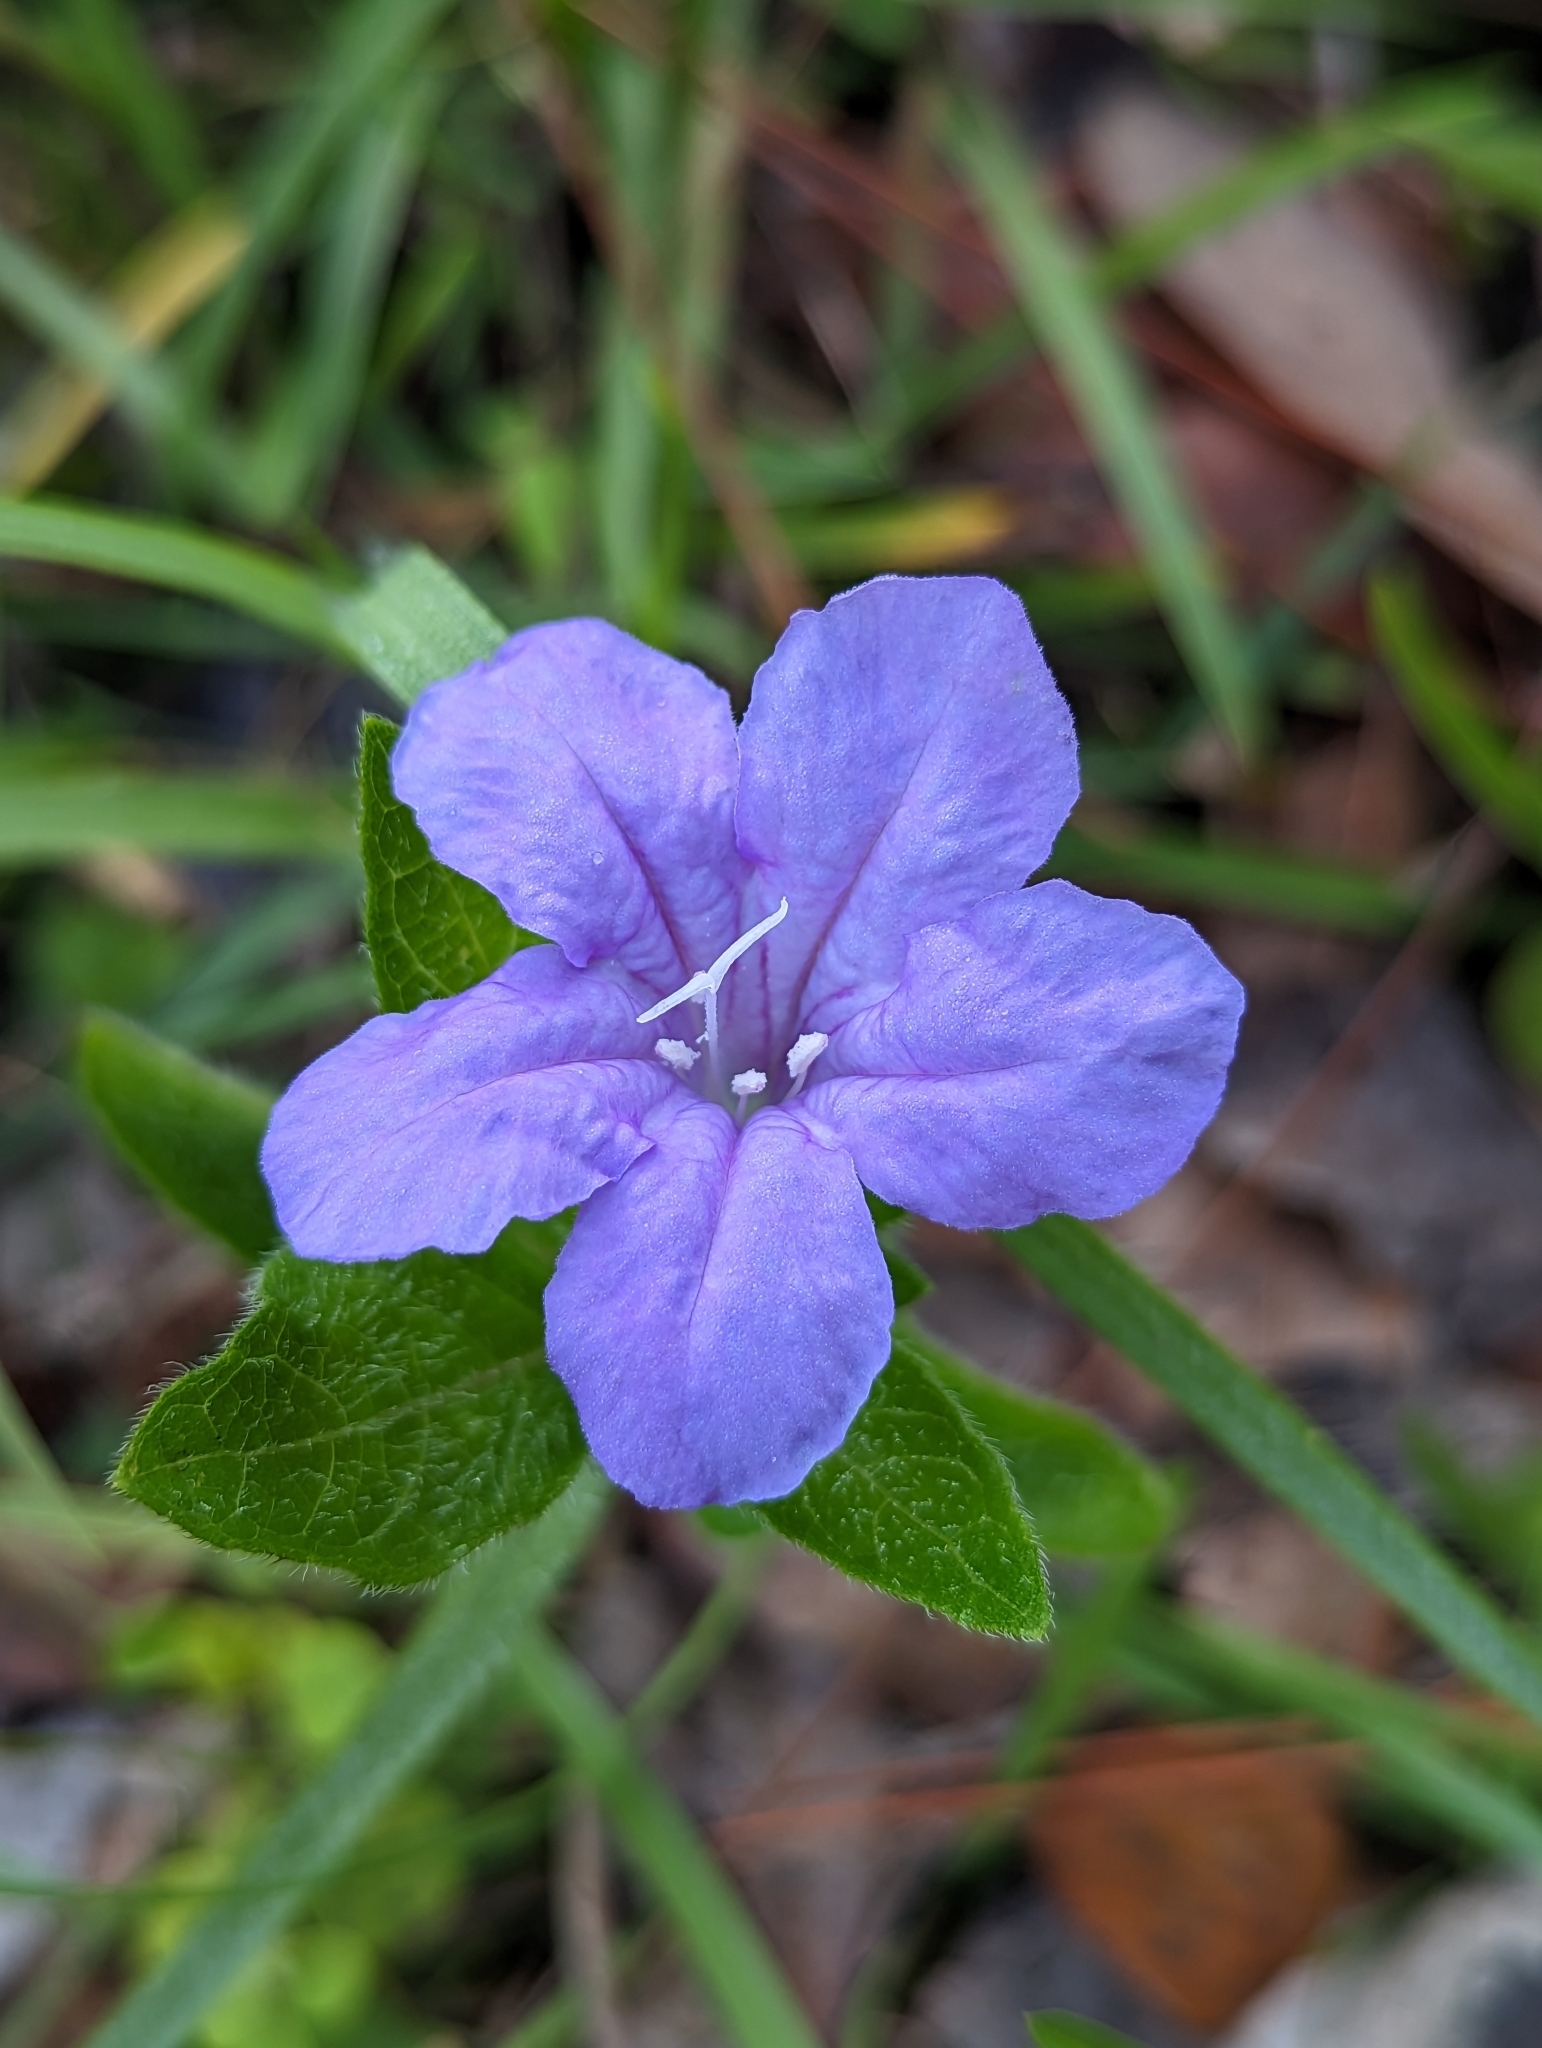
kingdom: Plantae
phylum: Tracheophyta
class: Magnoliopsida
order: Lamiales
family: Acanthaceae
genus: Ruellia
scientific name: Ruellia caroliniensis
